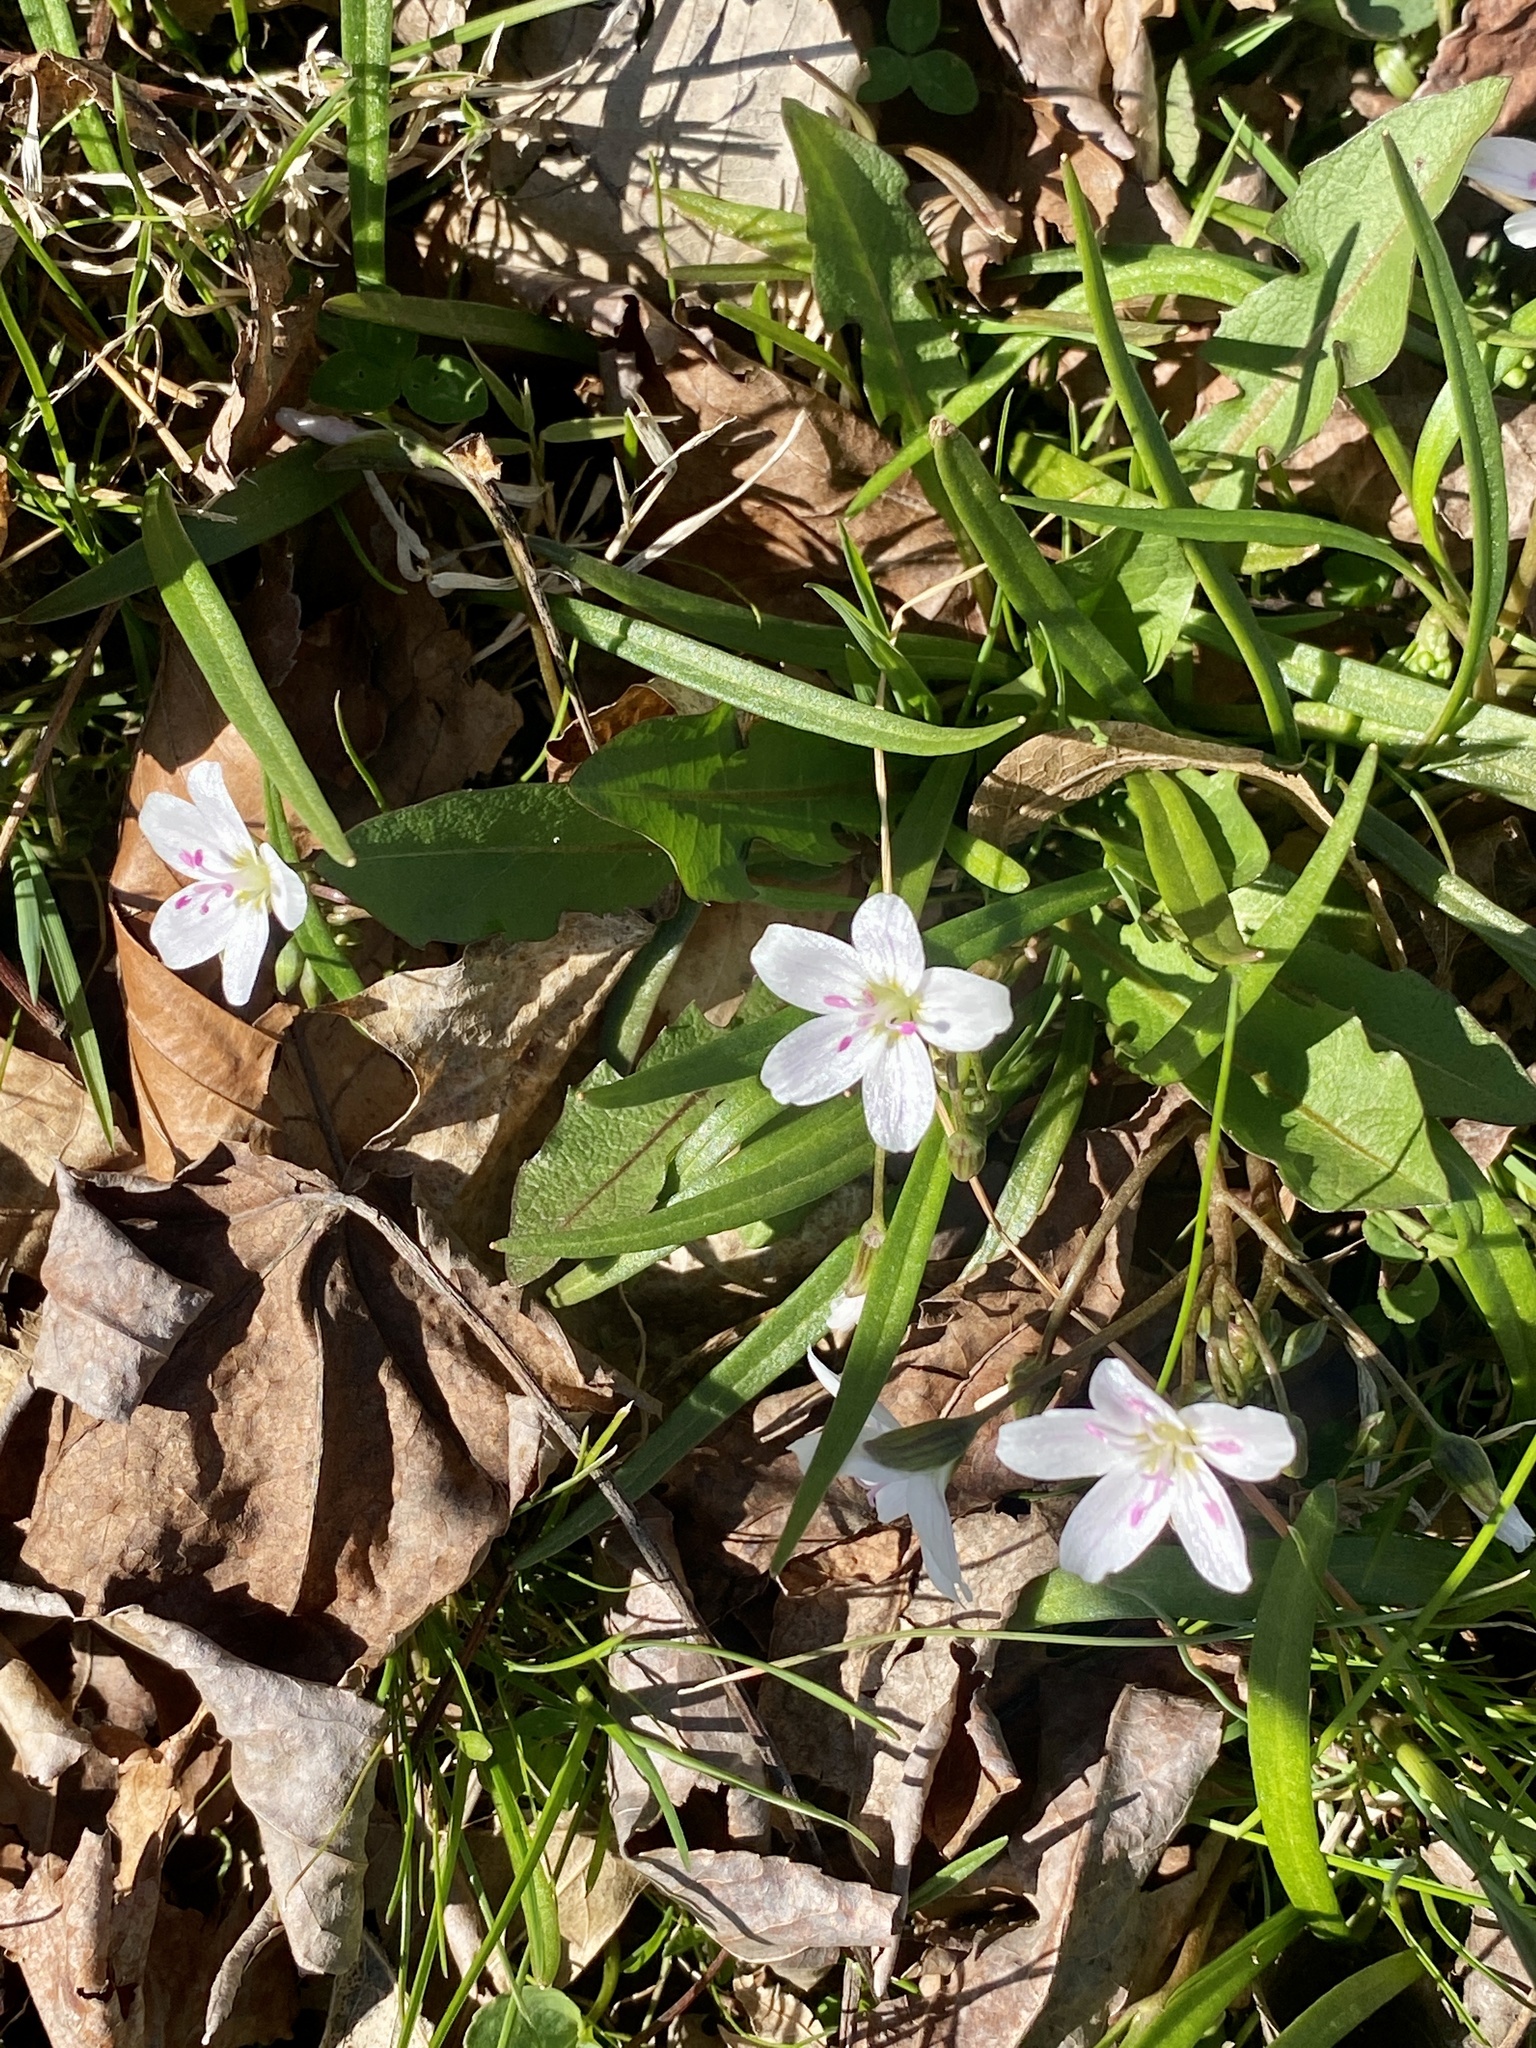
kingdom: Plantae
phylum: Tracheophyta
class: Magnoliopsida
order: Caryophyllales
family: Montiaceae
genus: Claytonia
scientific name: Claytonia virginica
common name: Virginia springbeauty
